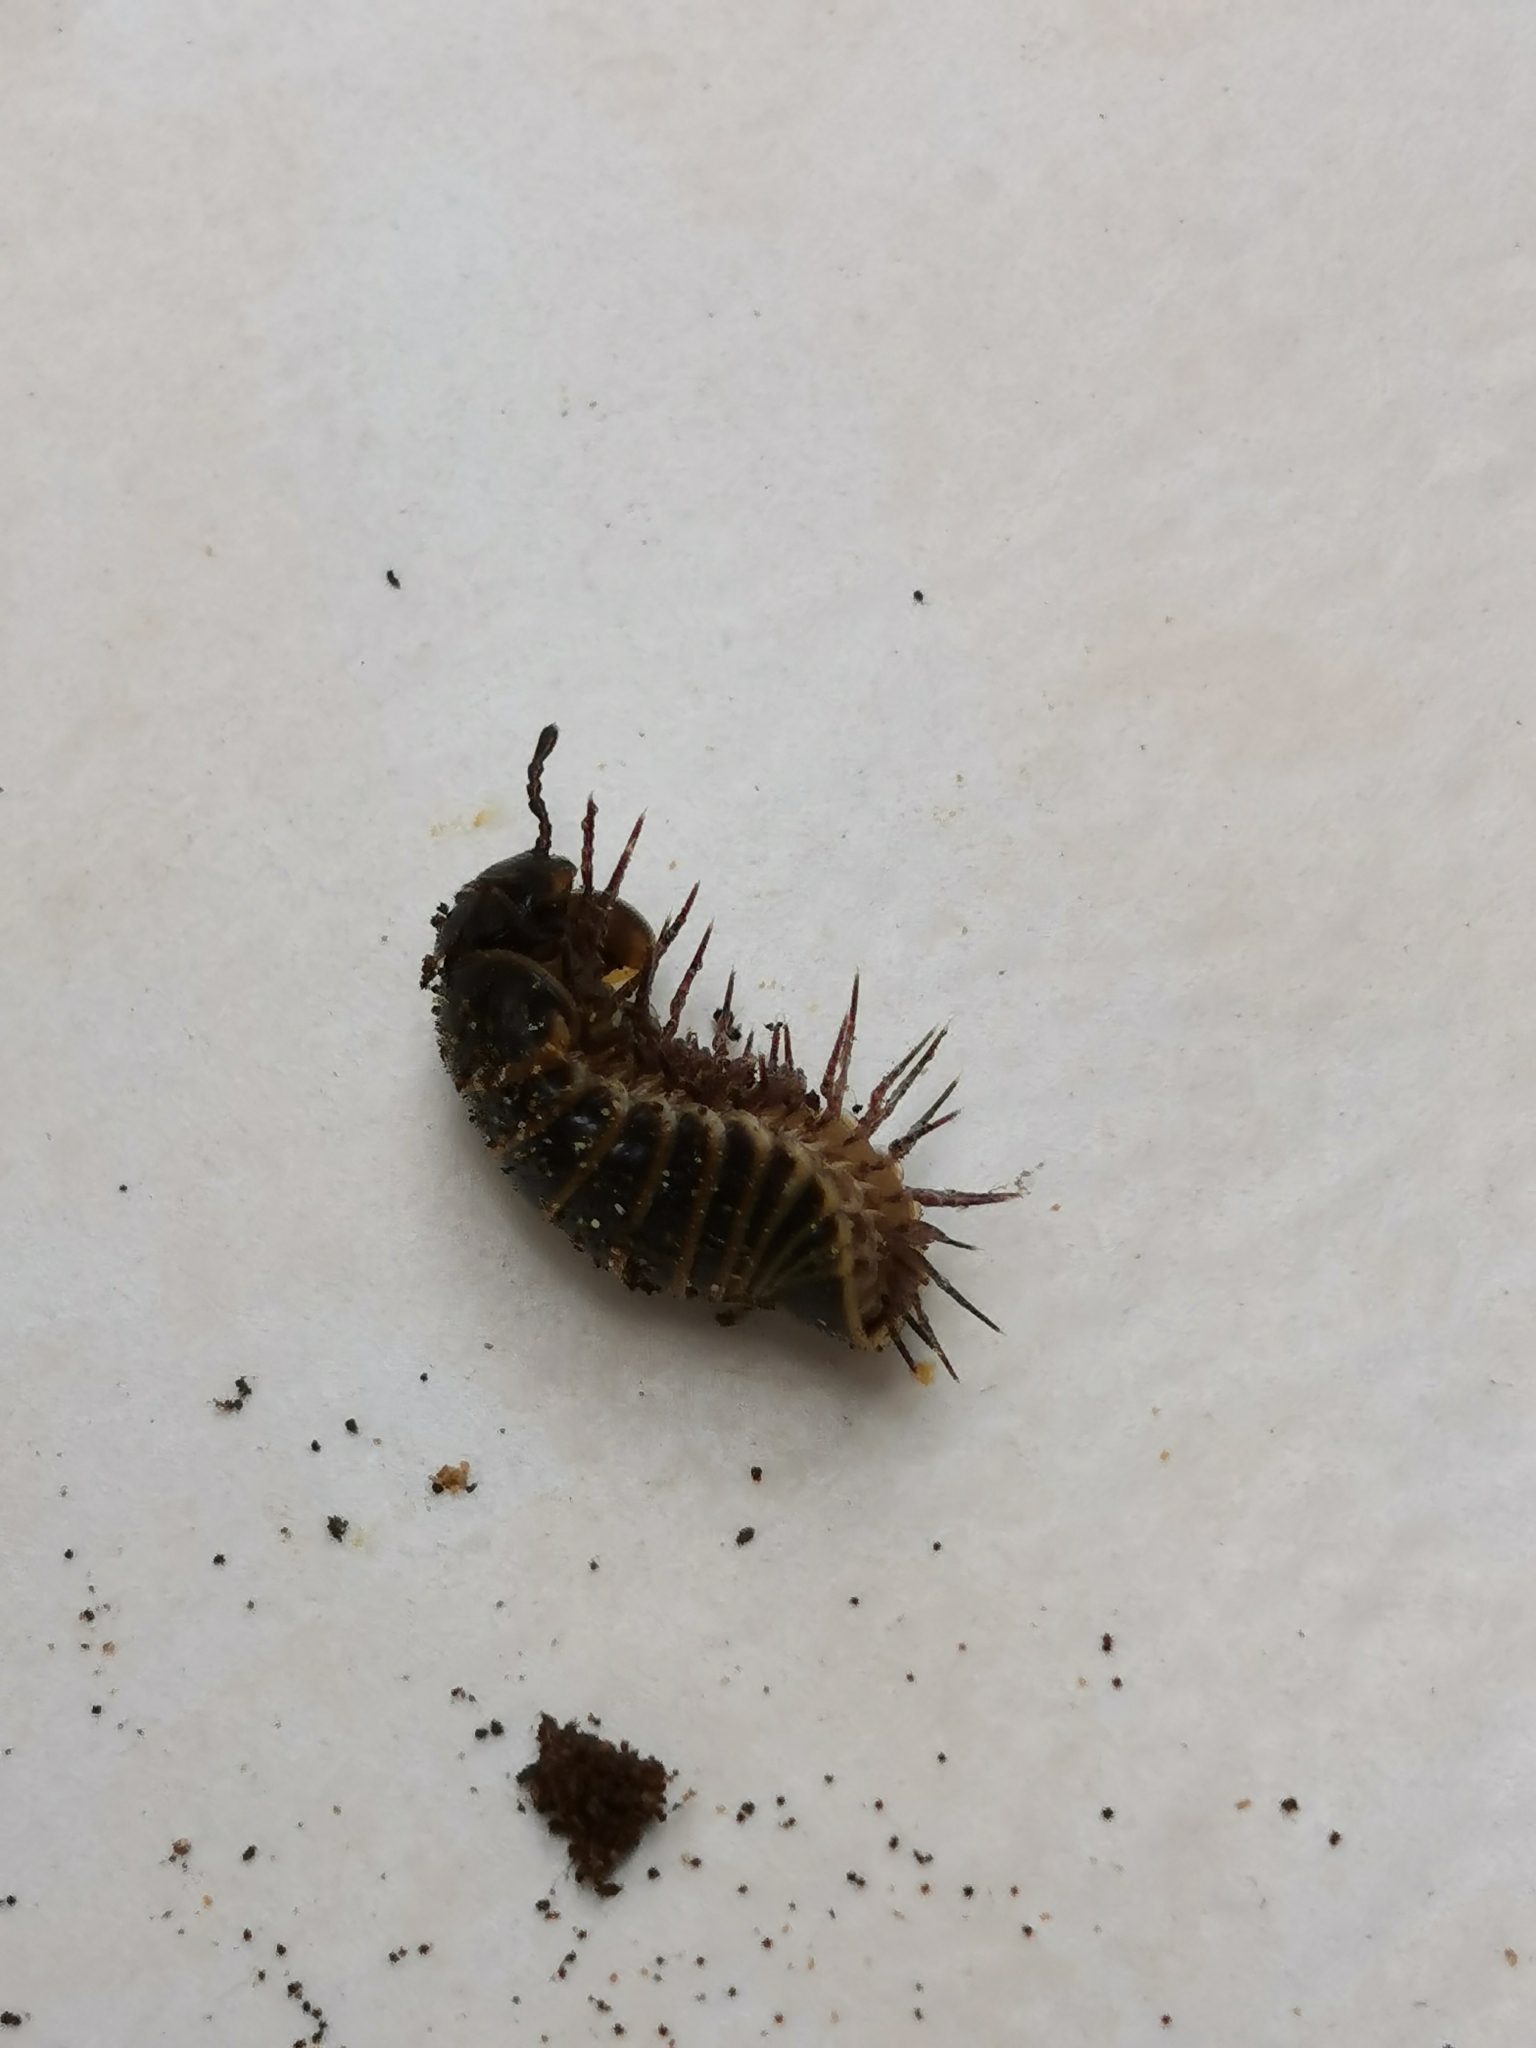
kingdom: Animalia
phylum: Arthropoda
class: Diplopoda
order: Glomerida
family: Glomeridae
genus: Glomeris
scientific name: Glomeris marginata
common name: Bordered pill millipede
